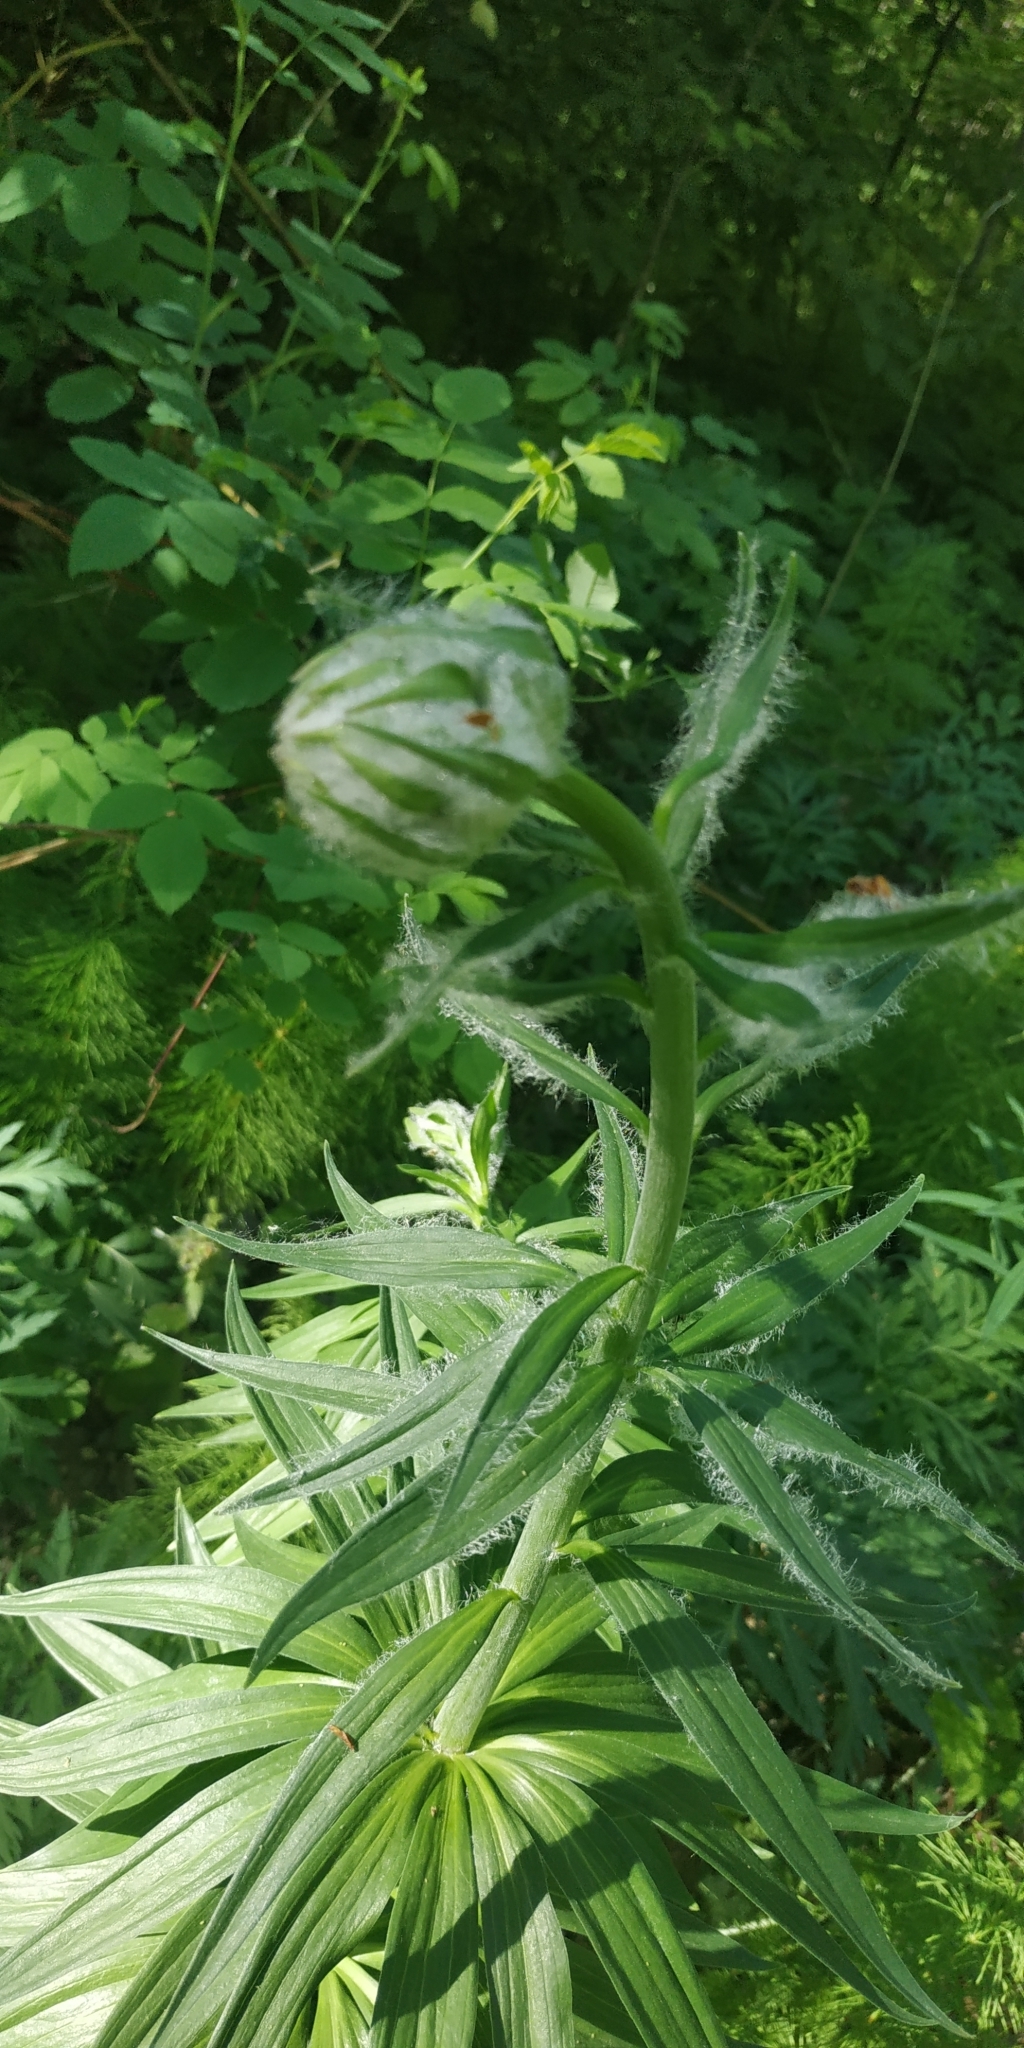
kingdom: Plantae
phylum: Tracheophyta
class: Liliopsida
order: Liliales
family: Liliaceae
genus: Lilium
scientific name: Lilium martagon
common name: Martagon lily
